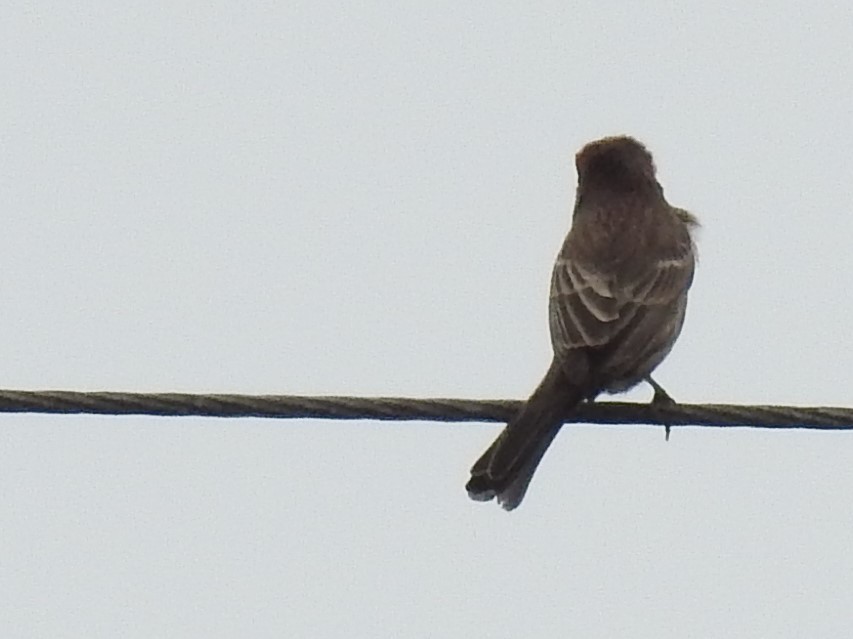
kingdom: Animalia
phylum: Chordata
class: Aves
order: Passeriformes
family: Tyrannidae
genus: Sayornis
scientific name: Sayornis nigricans
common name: Black phoebe
